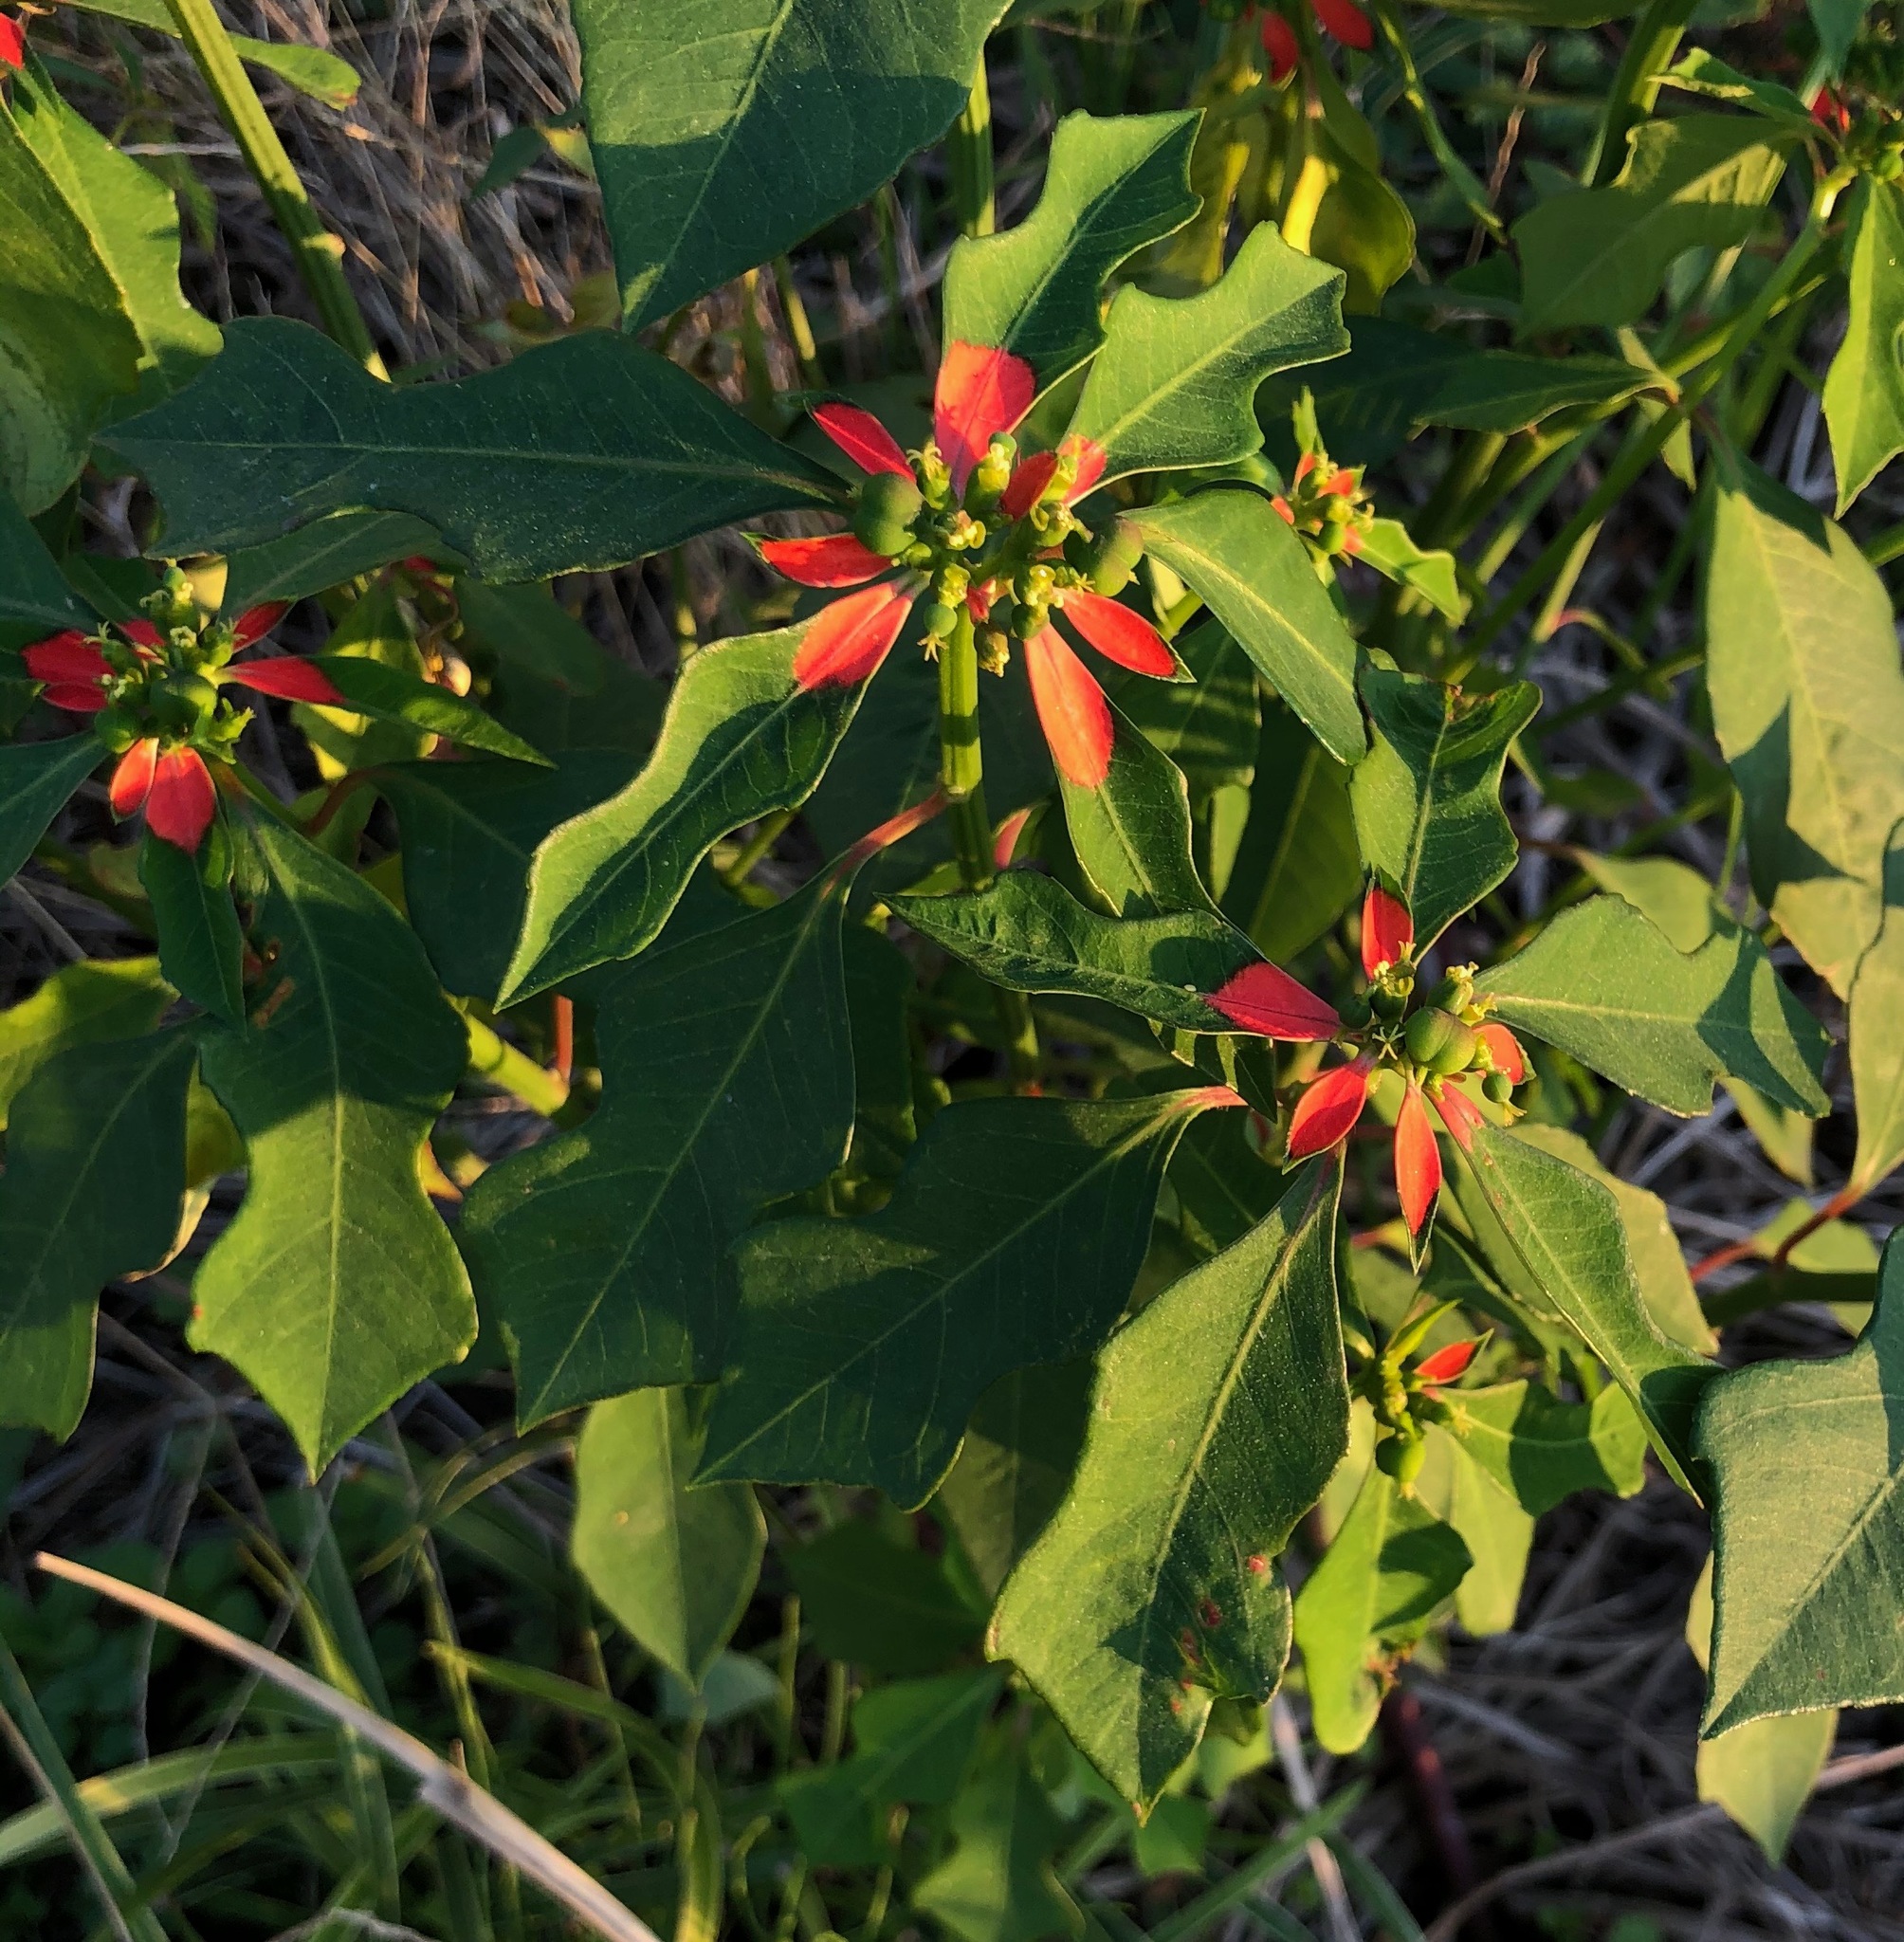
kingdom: Plantae
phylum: Tracheophyta
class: Magnoliopsida
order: Malpighiales
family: Euphorbiaceae
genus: Euphorbia
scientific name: Euphorbia heterophylla
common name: Mexican fireplant
